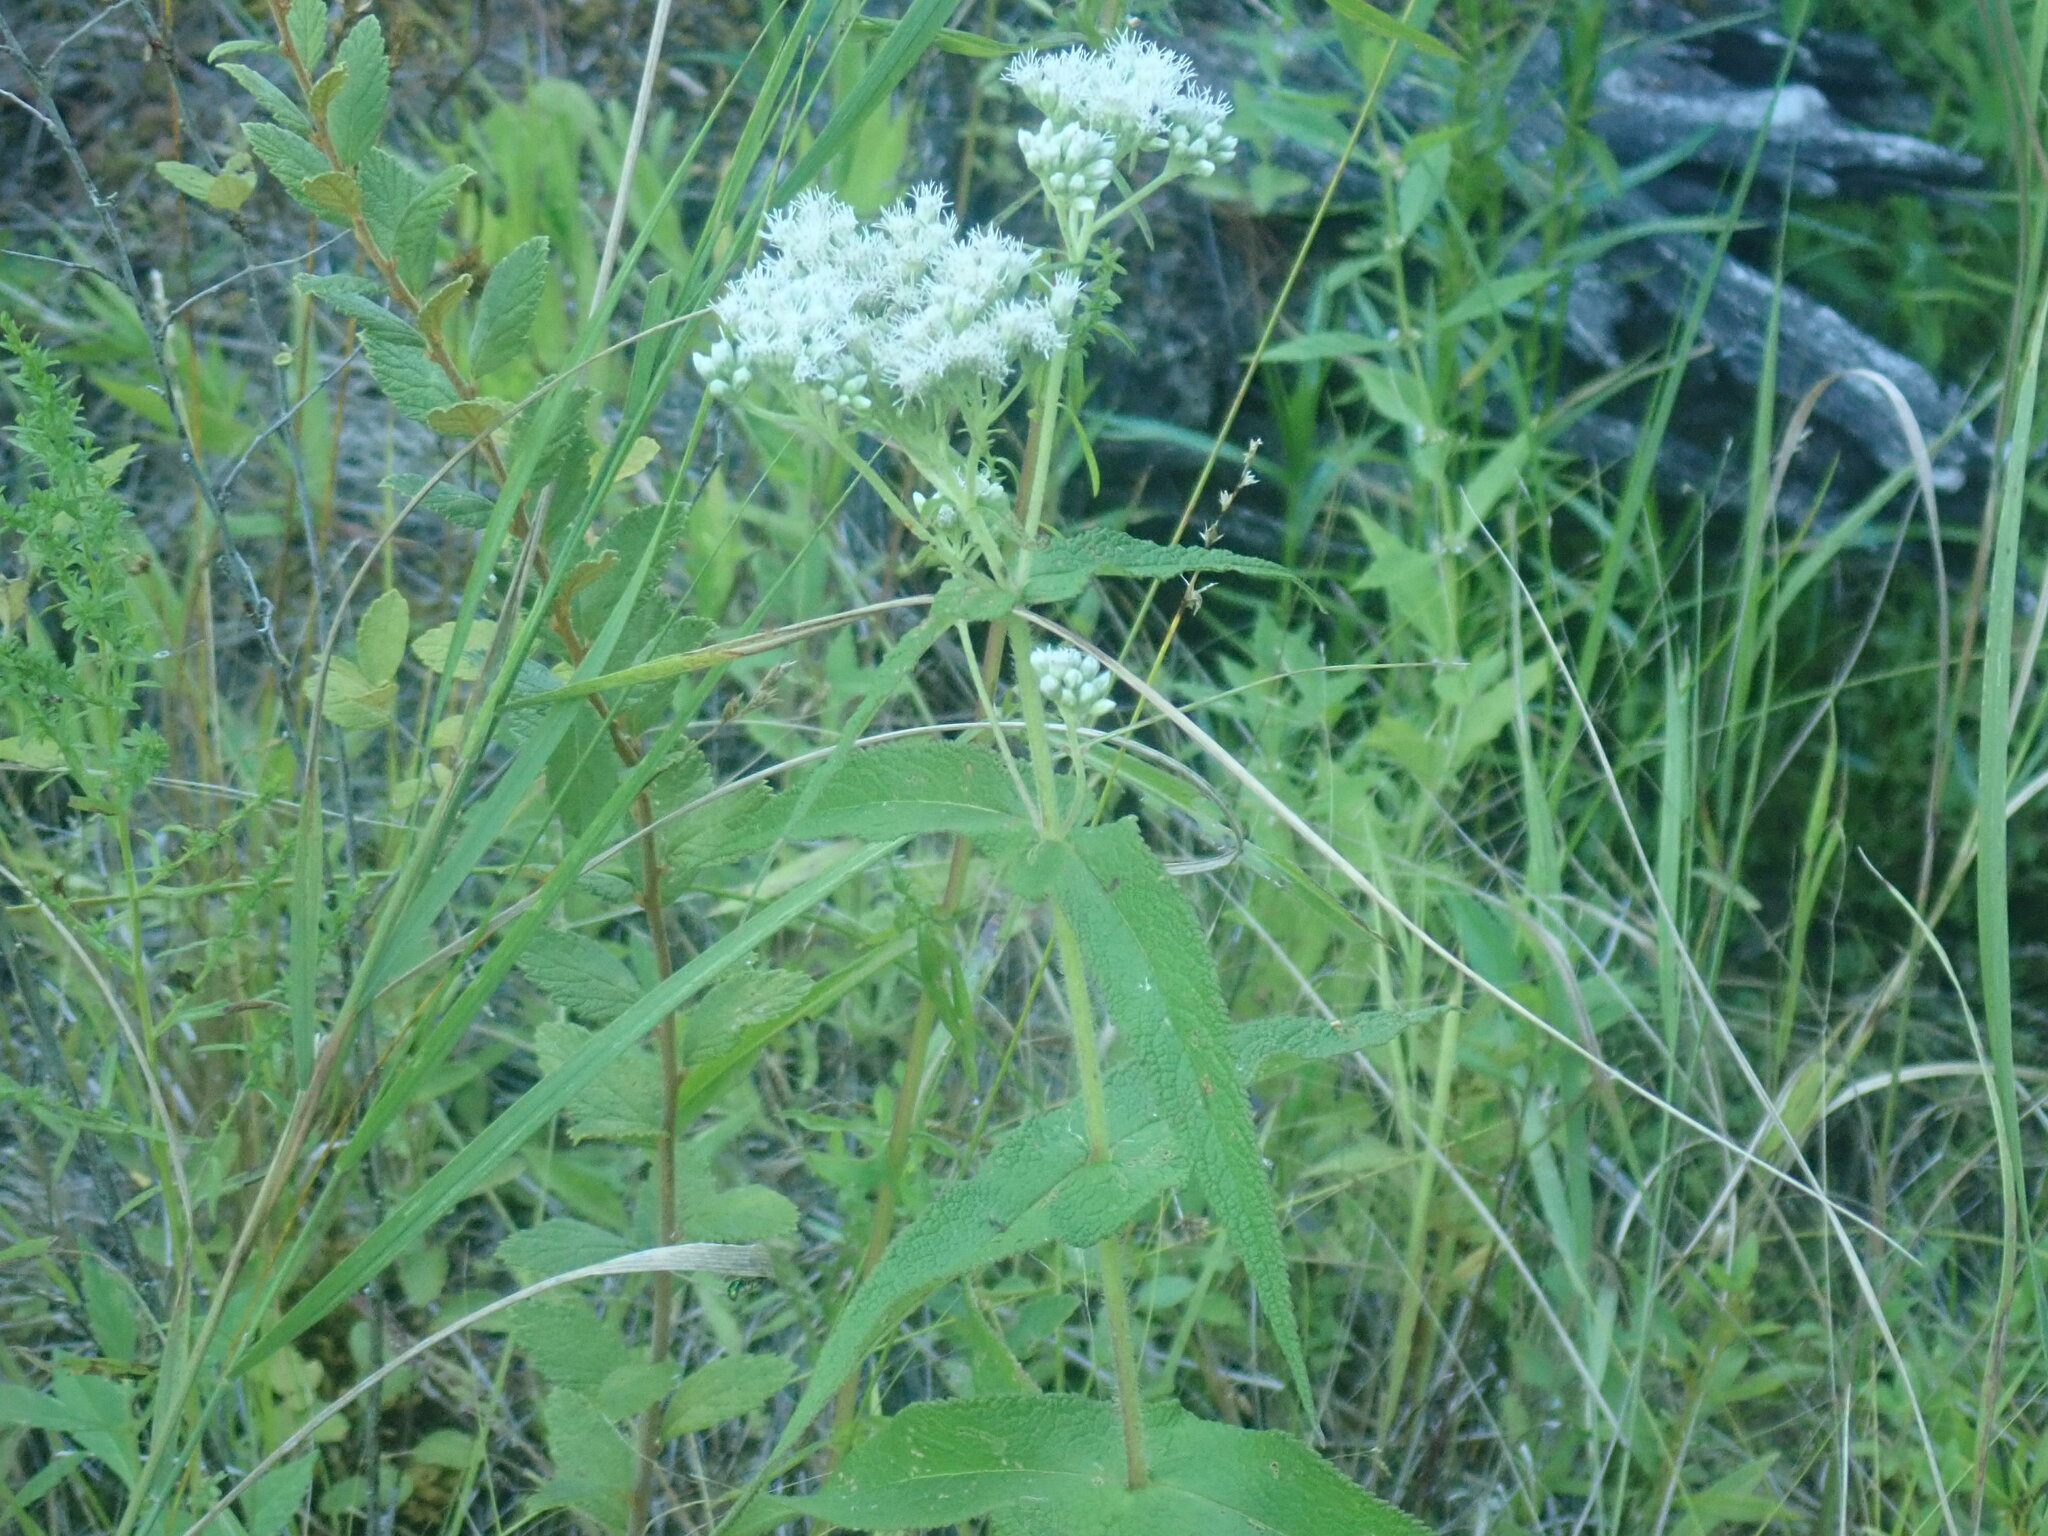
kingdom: Plantae
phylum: Tracheophyta
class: Magnoliopsida
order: Asterales
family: Asteraceae
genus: Eupatorium
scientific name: Eupatorium perfoliatum
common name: Boneset
